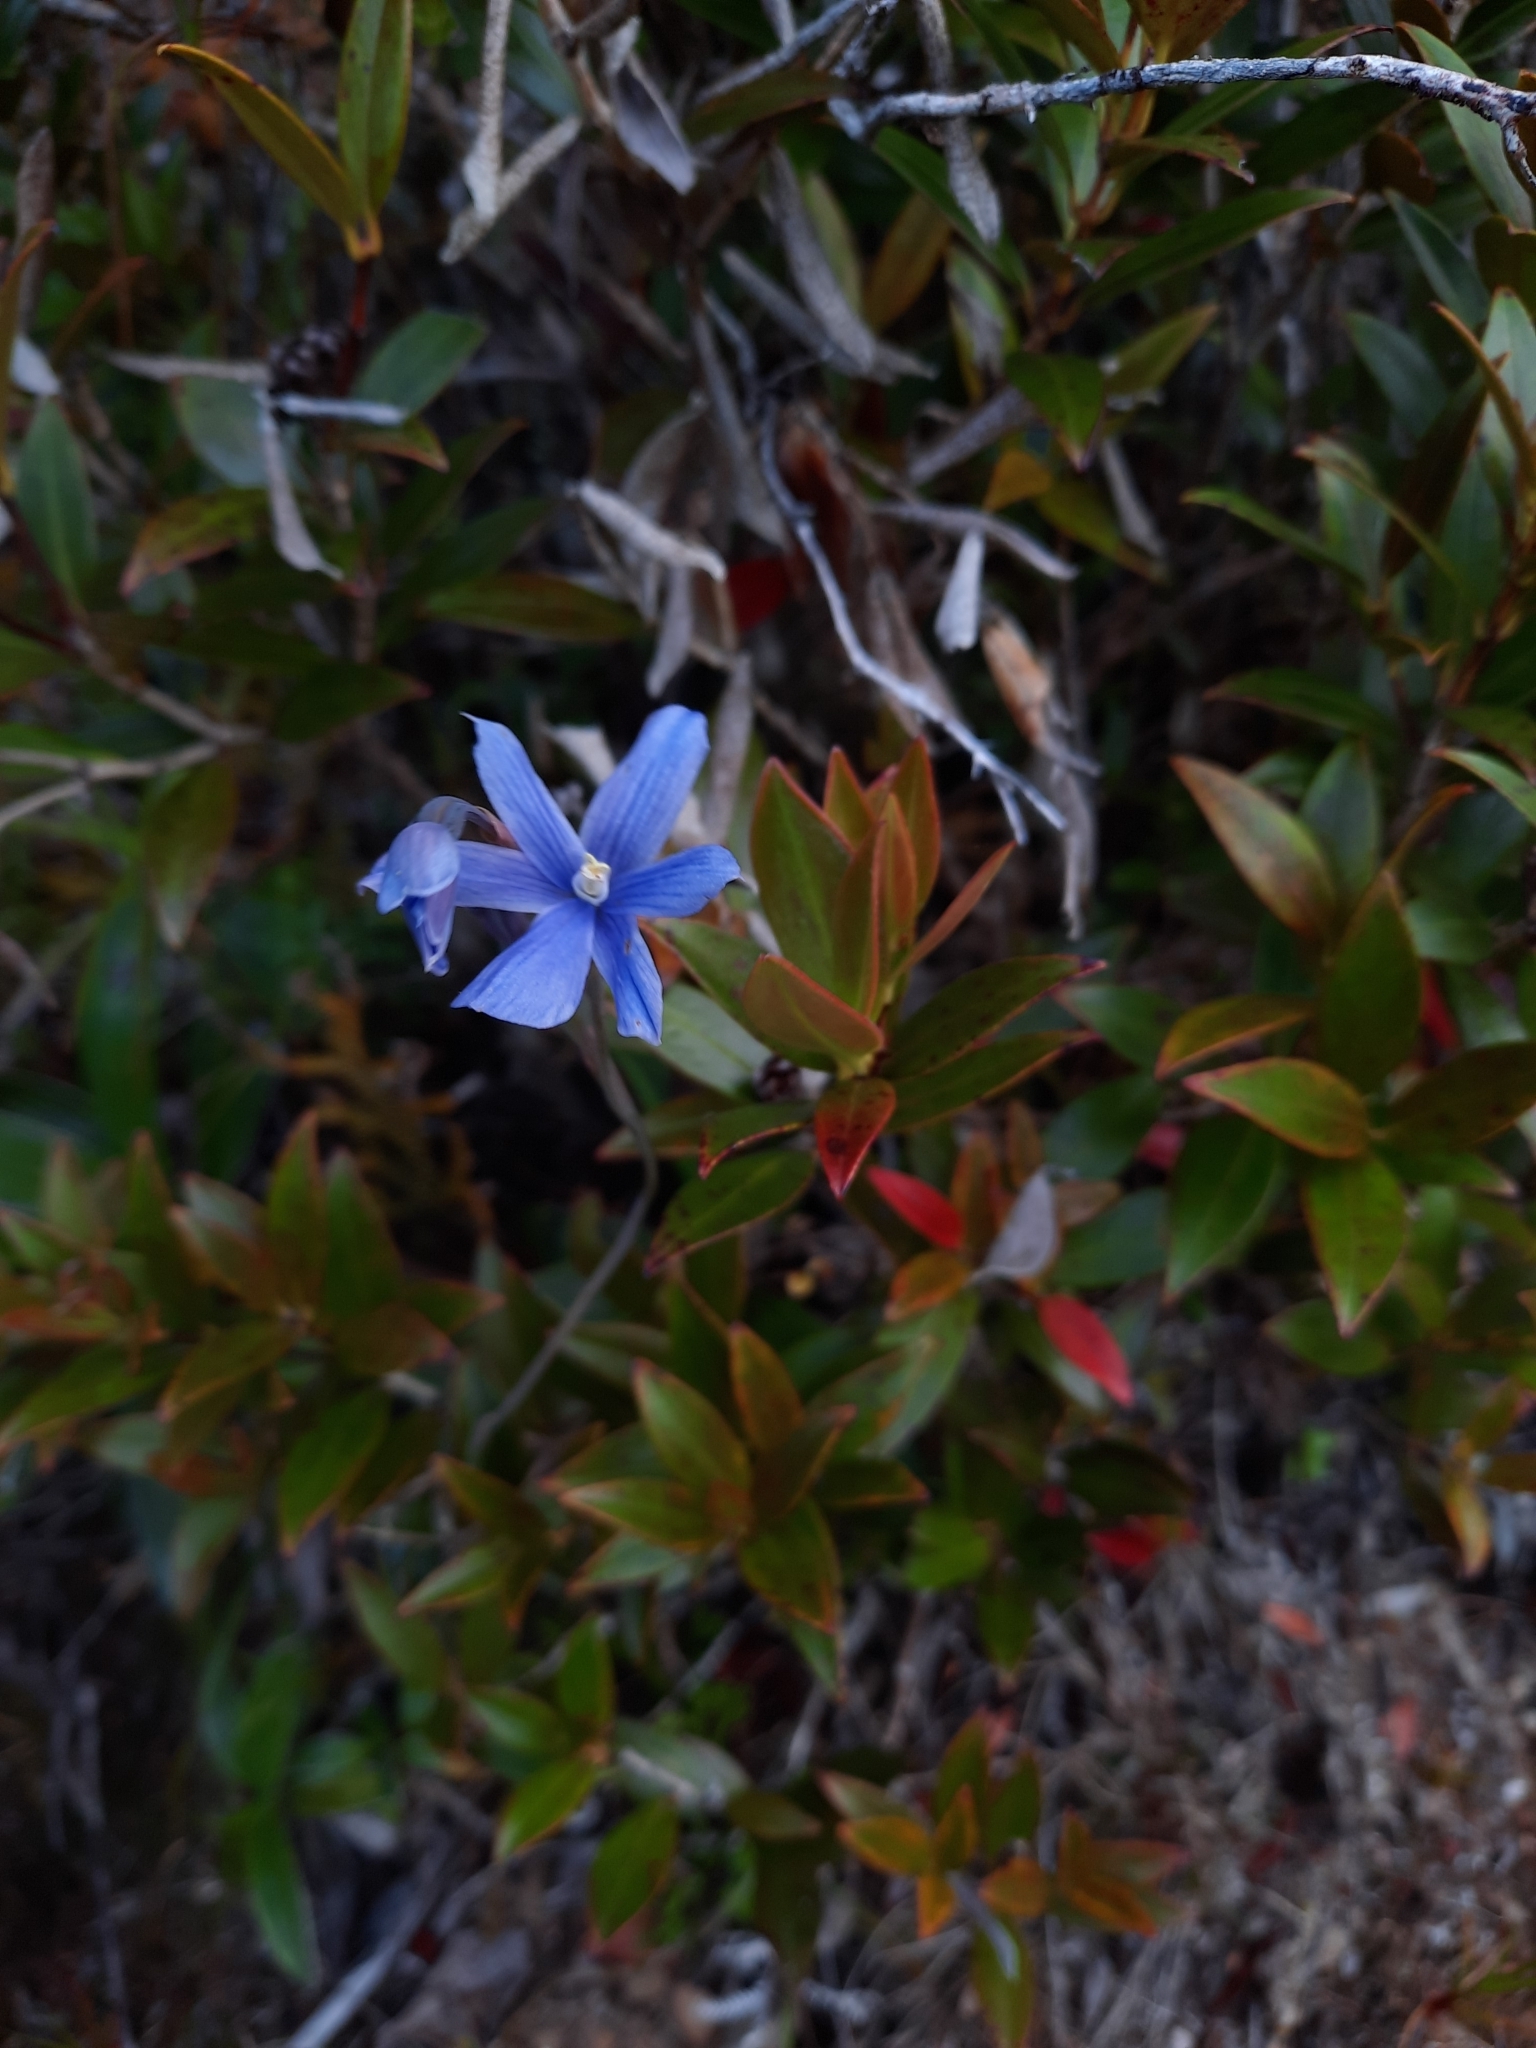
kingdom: Plantae
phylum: Tracheophyta
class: Liliopsida
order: Asparagales
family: Orchidaceae
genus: Thelymitra
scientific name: Thelymitra cyanea
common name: Blue sun-orchid
